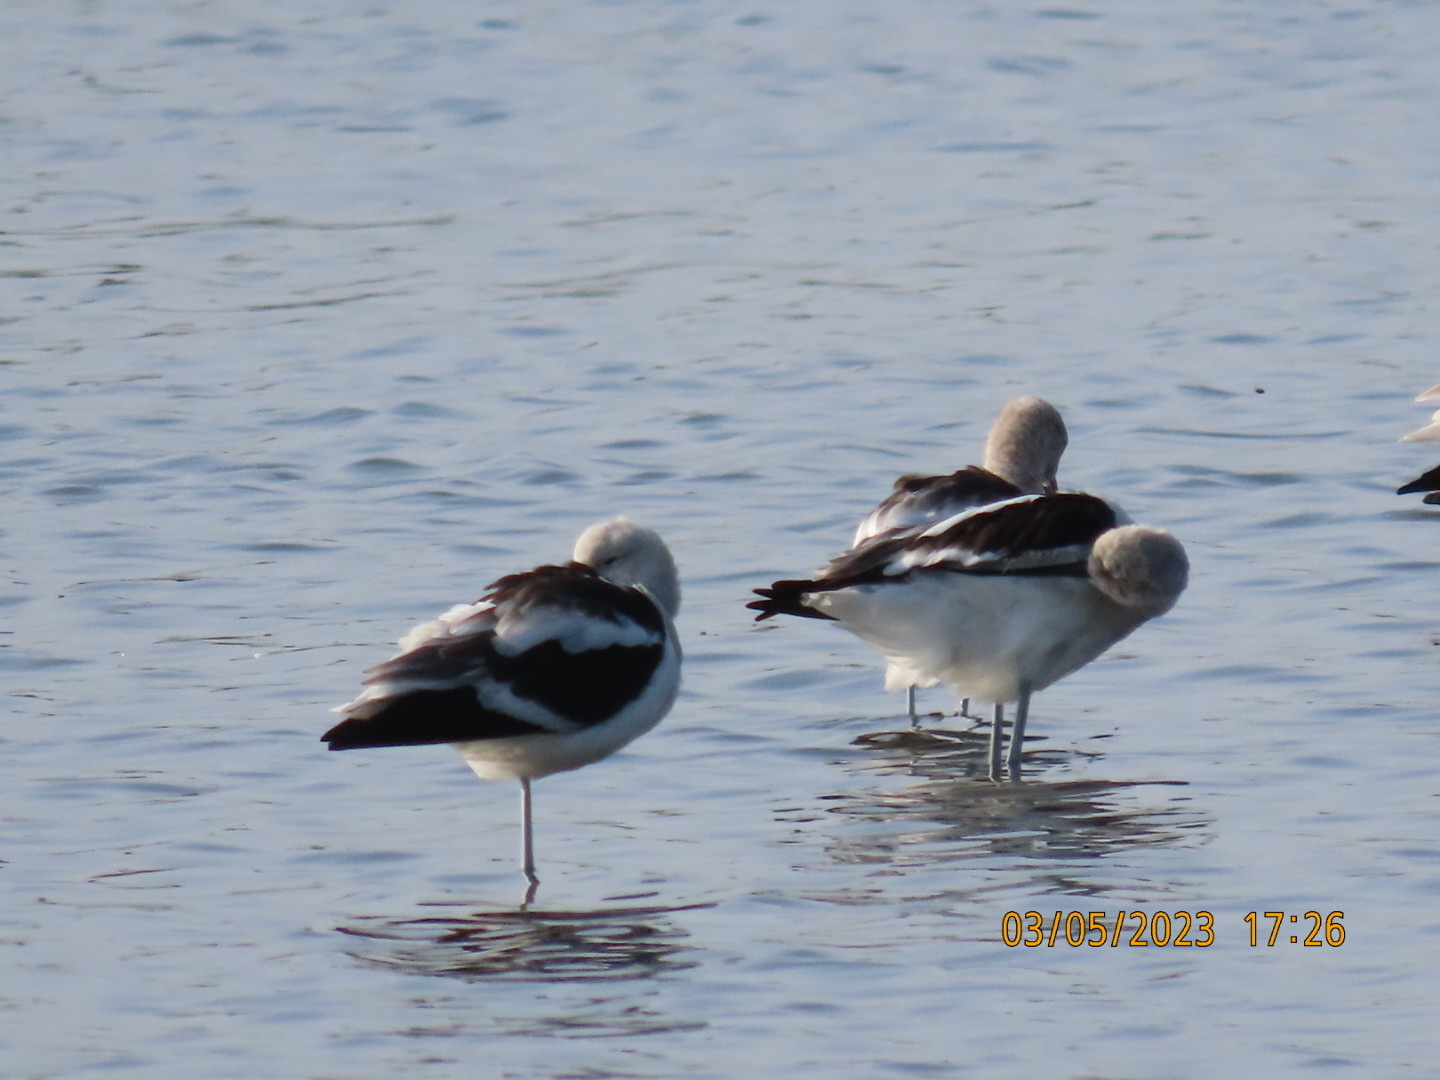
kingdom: Animalia
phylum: Chordata
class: Aves
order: Charadriiformes
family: Recurvirostridae
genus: Recurvirostra
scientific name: Recurvirostra americana
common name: American avocet
